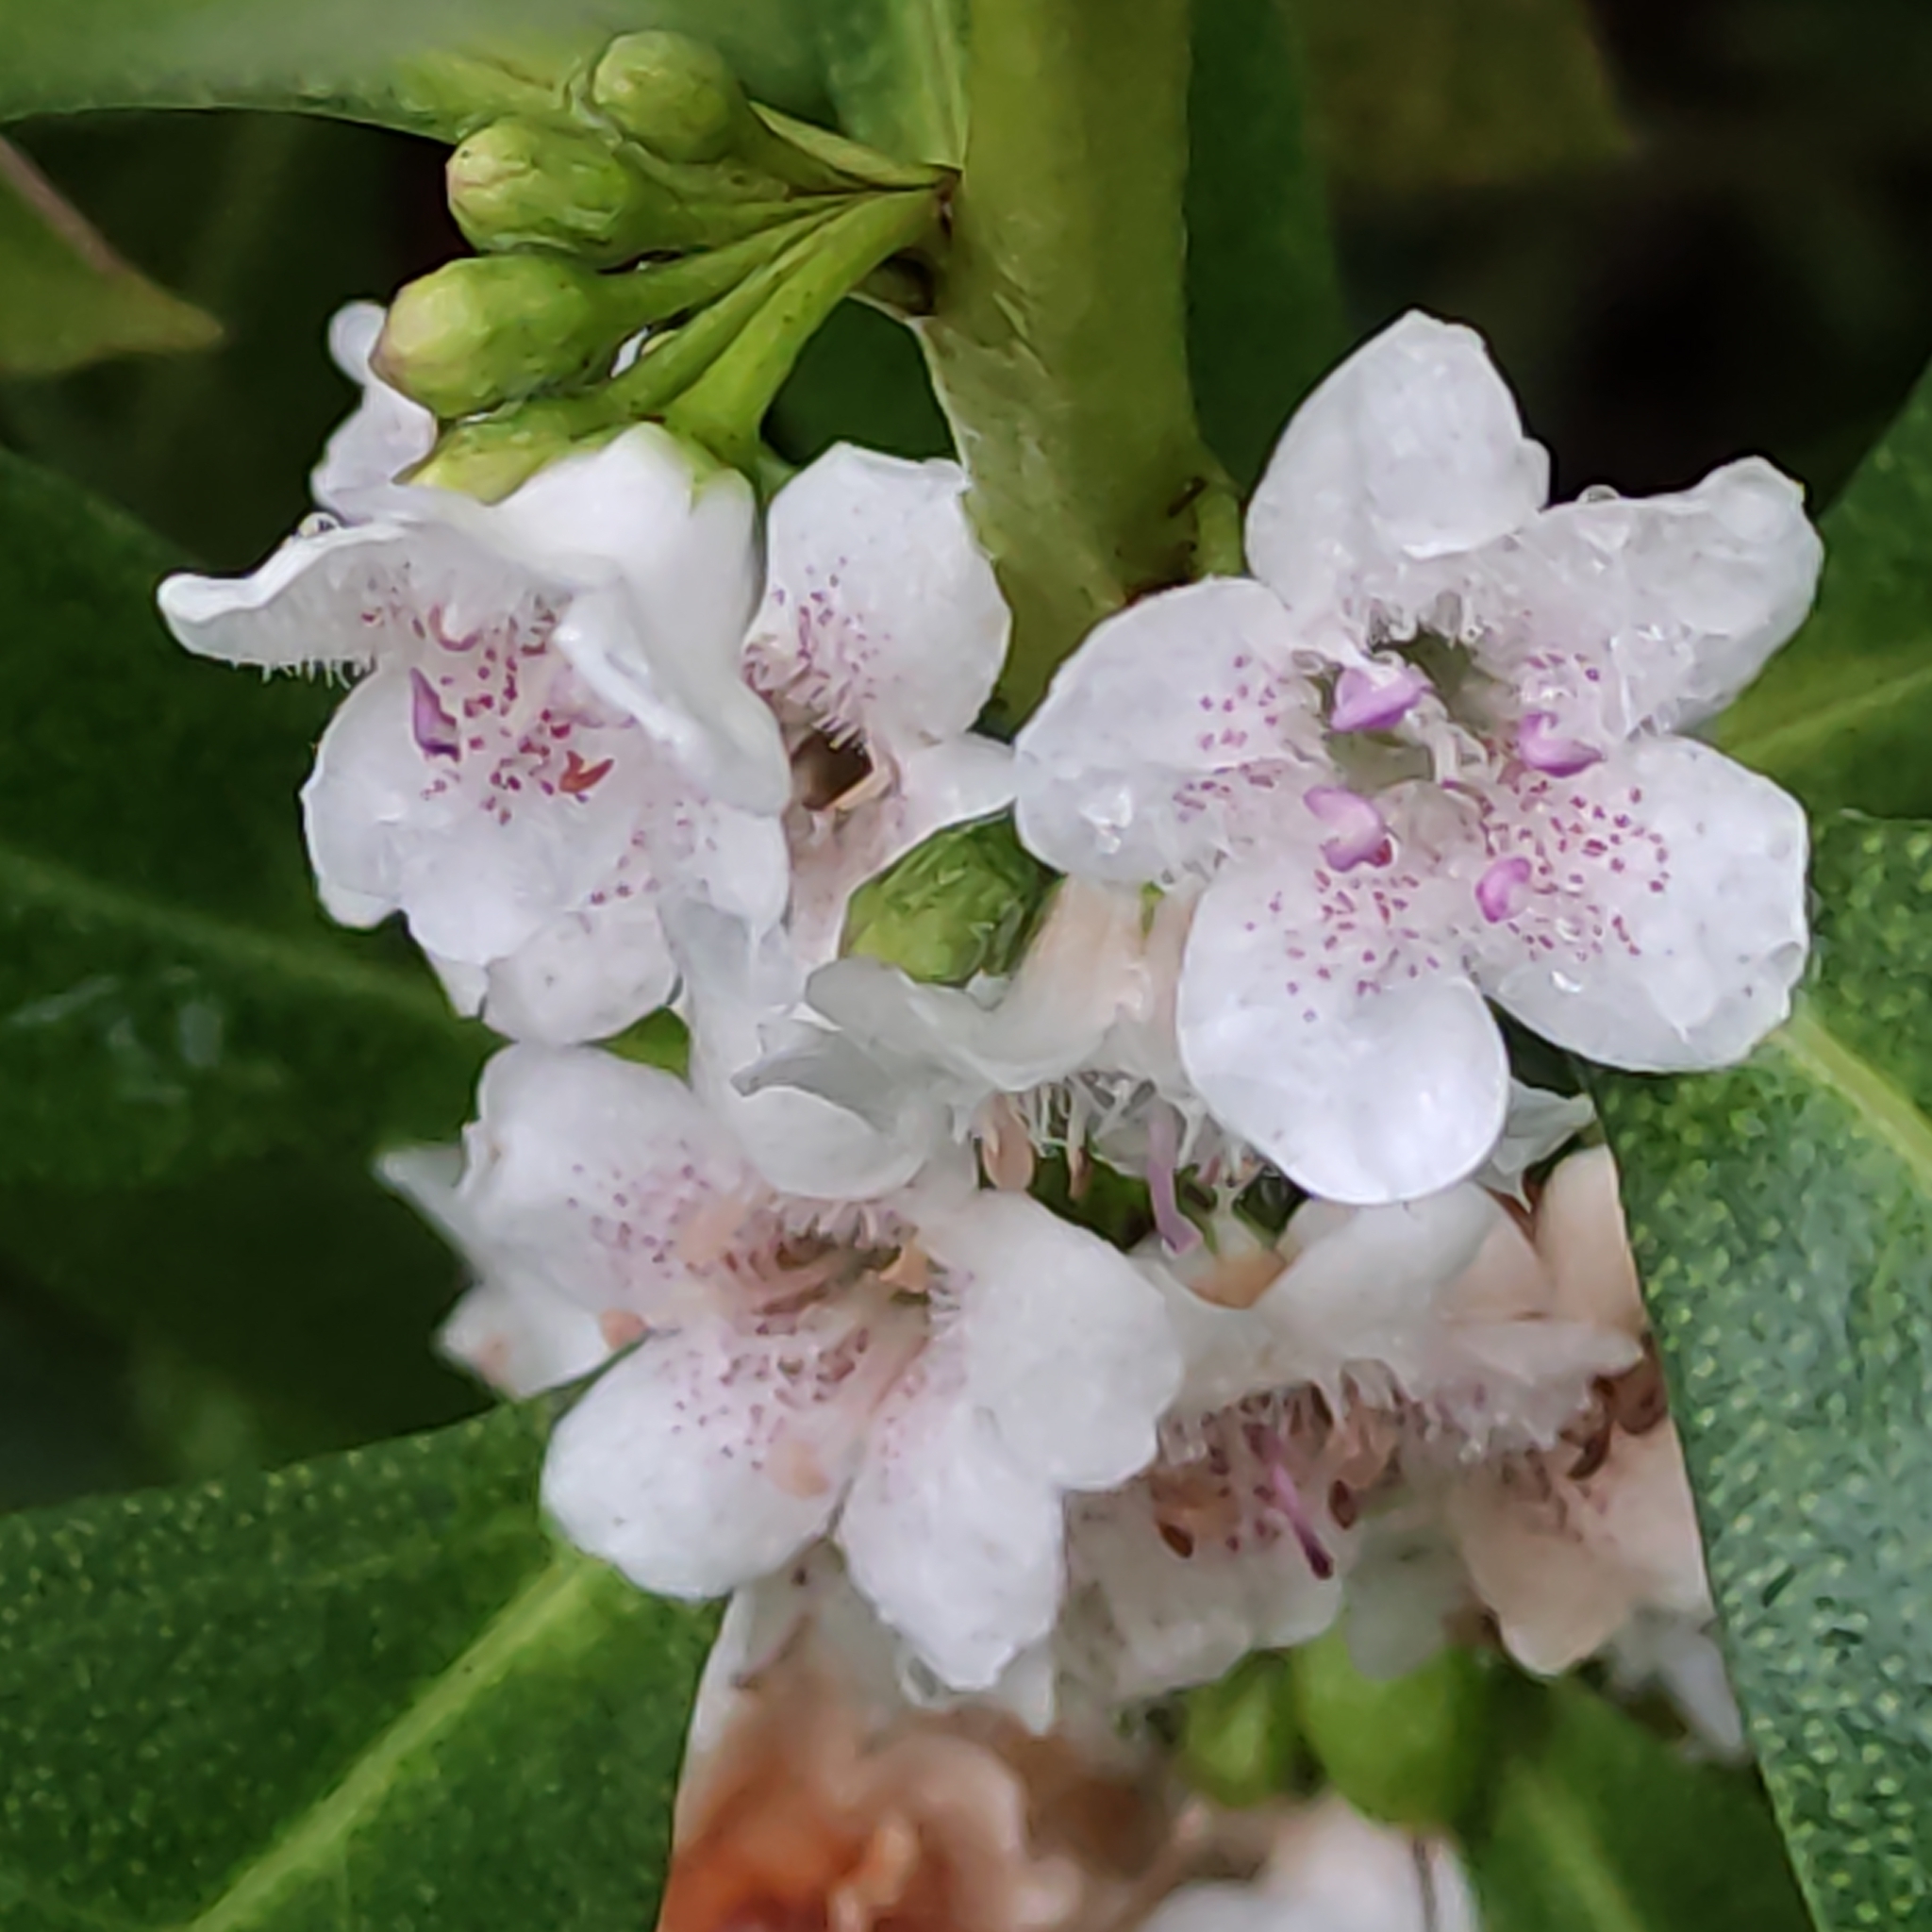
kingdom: Plantae
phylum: Tracheophyta
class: Magnoliopsida
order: Lamiales
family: Scrophulariaceae
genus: Myoporum
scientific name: Myoporum laetum
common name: Ngaio tree
